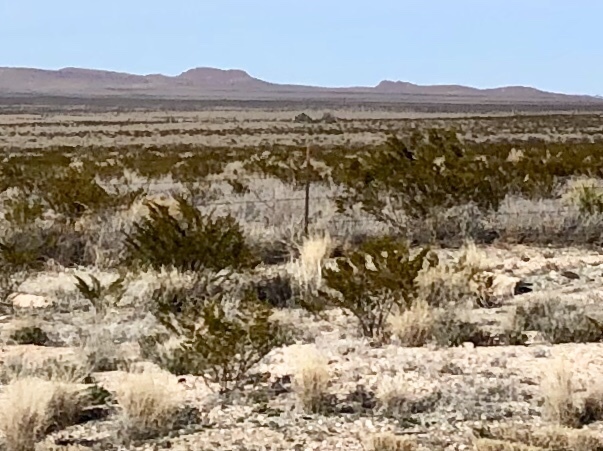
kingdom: Plantae
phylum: Tracheophyta
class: Magnoliopsida
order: Zygophyllales
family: Zygophyllaceae
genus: Larrea
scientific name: Larrea tridentata
